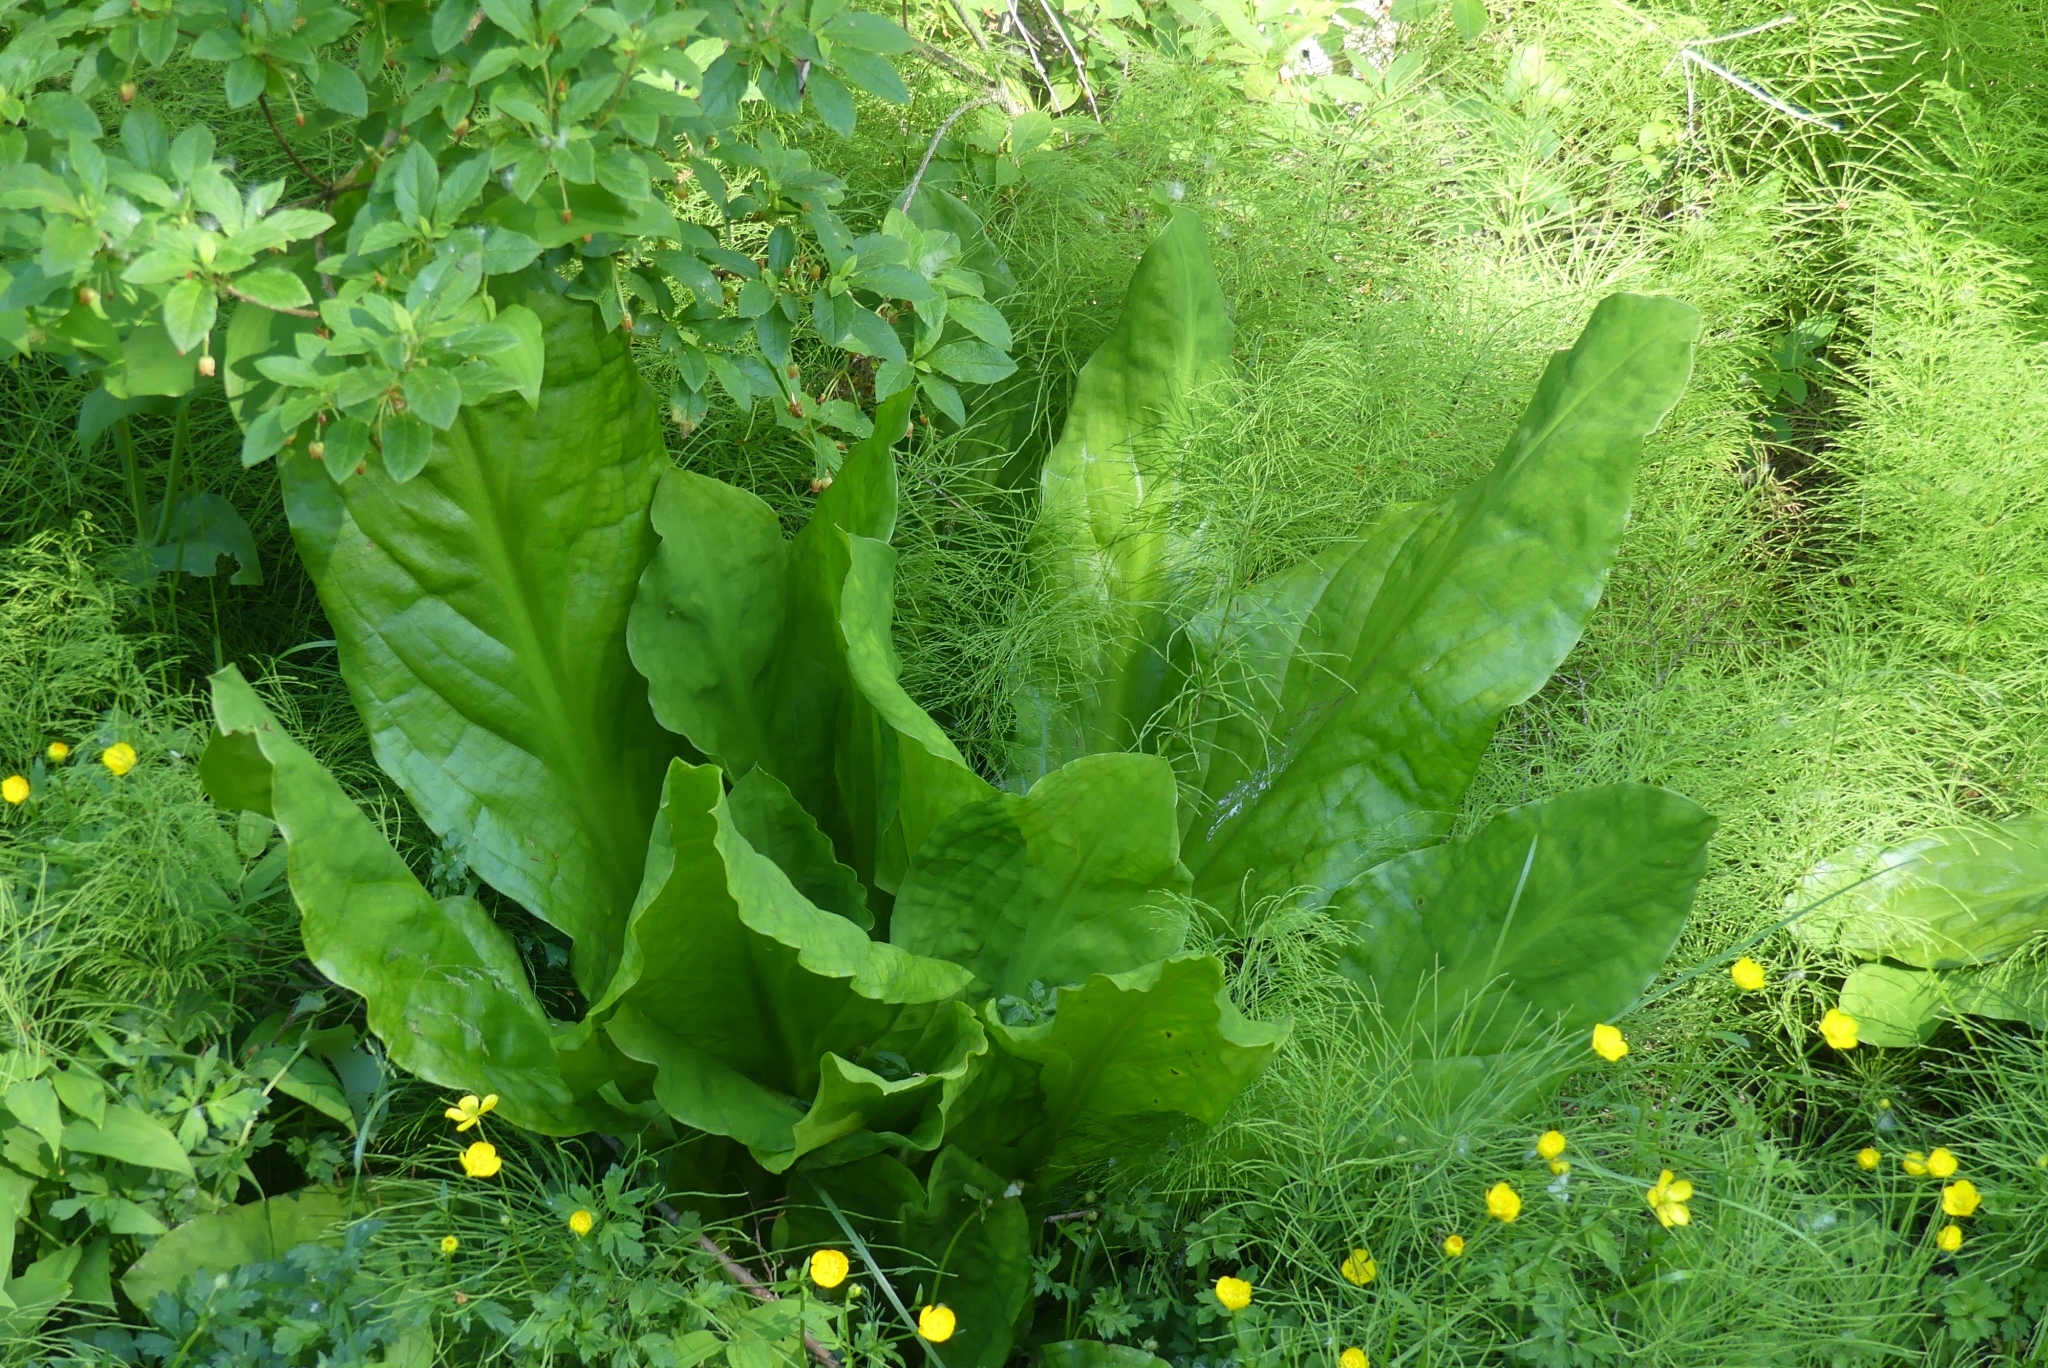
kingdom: Plantae
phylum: Tracheophyta
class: Liliopsida
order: Alismatales
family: Araceae
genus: Lysichiton
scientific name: Lysichiton americanus
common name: American skunk cabbage
